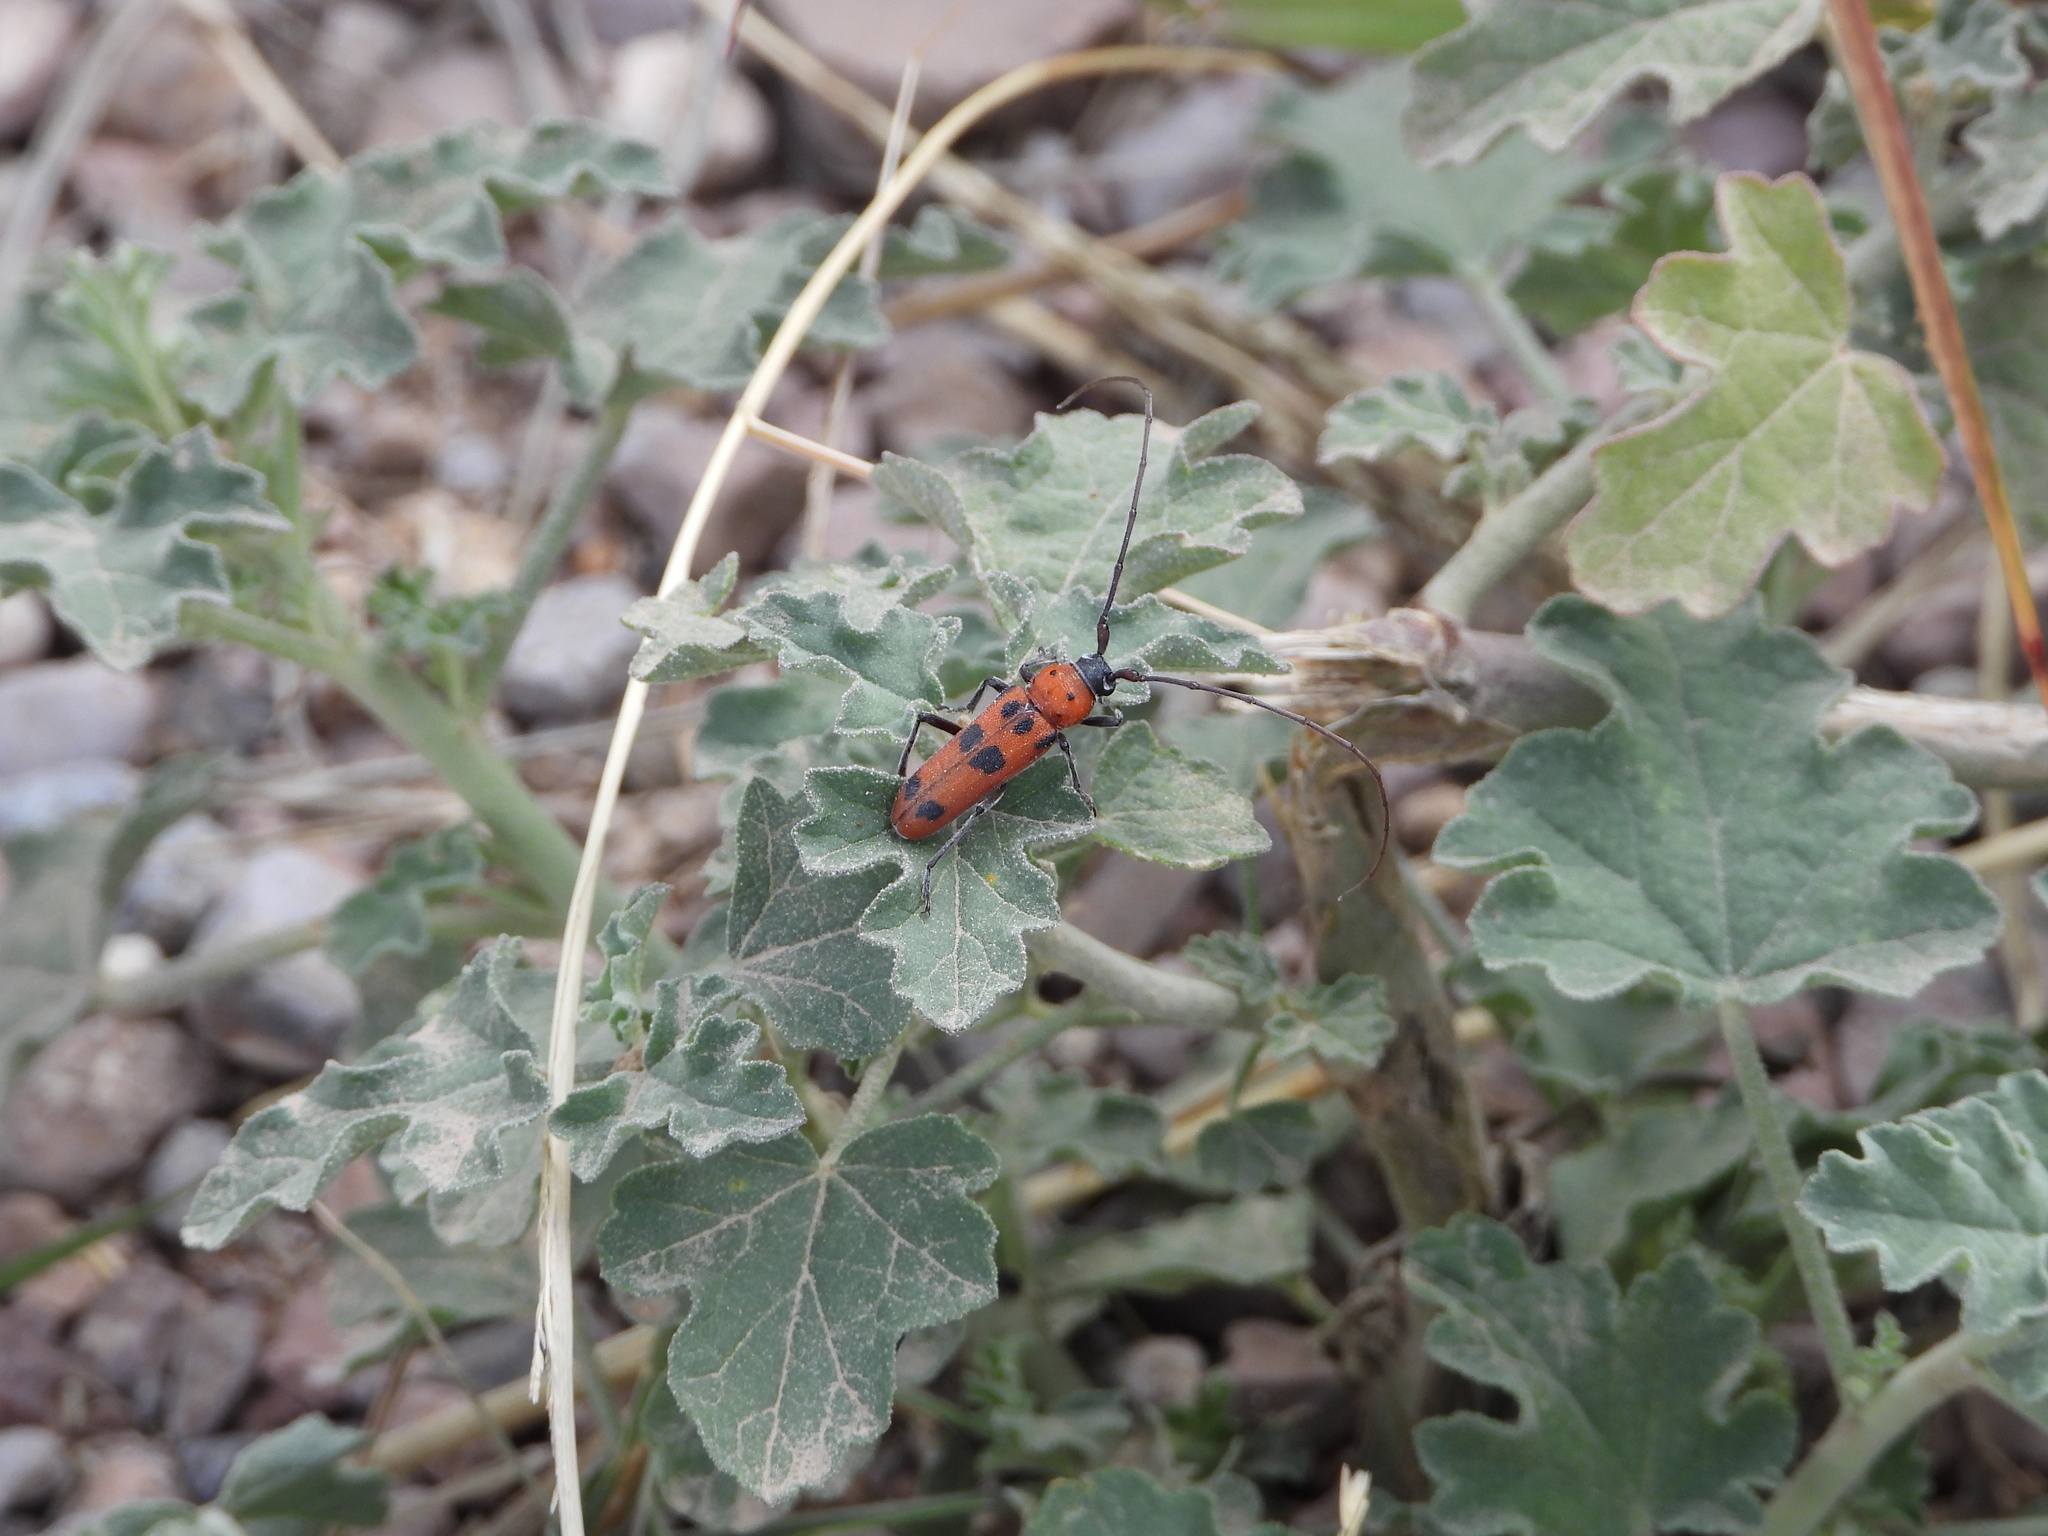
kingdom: Animalia
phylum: Arthropoda
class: Insecta
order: Coleoptera
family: Cerambycidae
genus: Tylosis
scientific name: Tylosis maculatus
